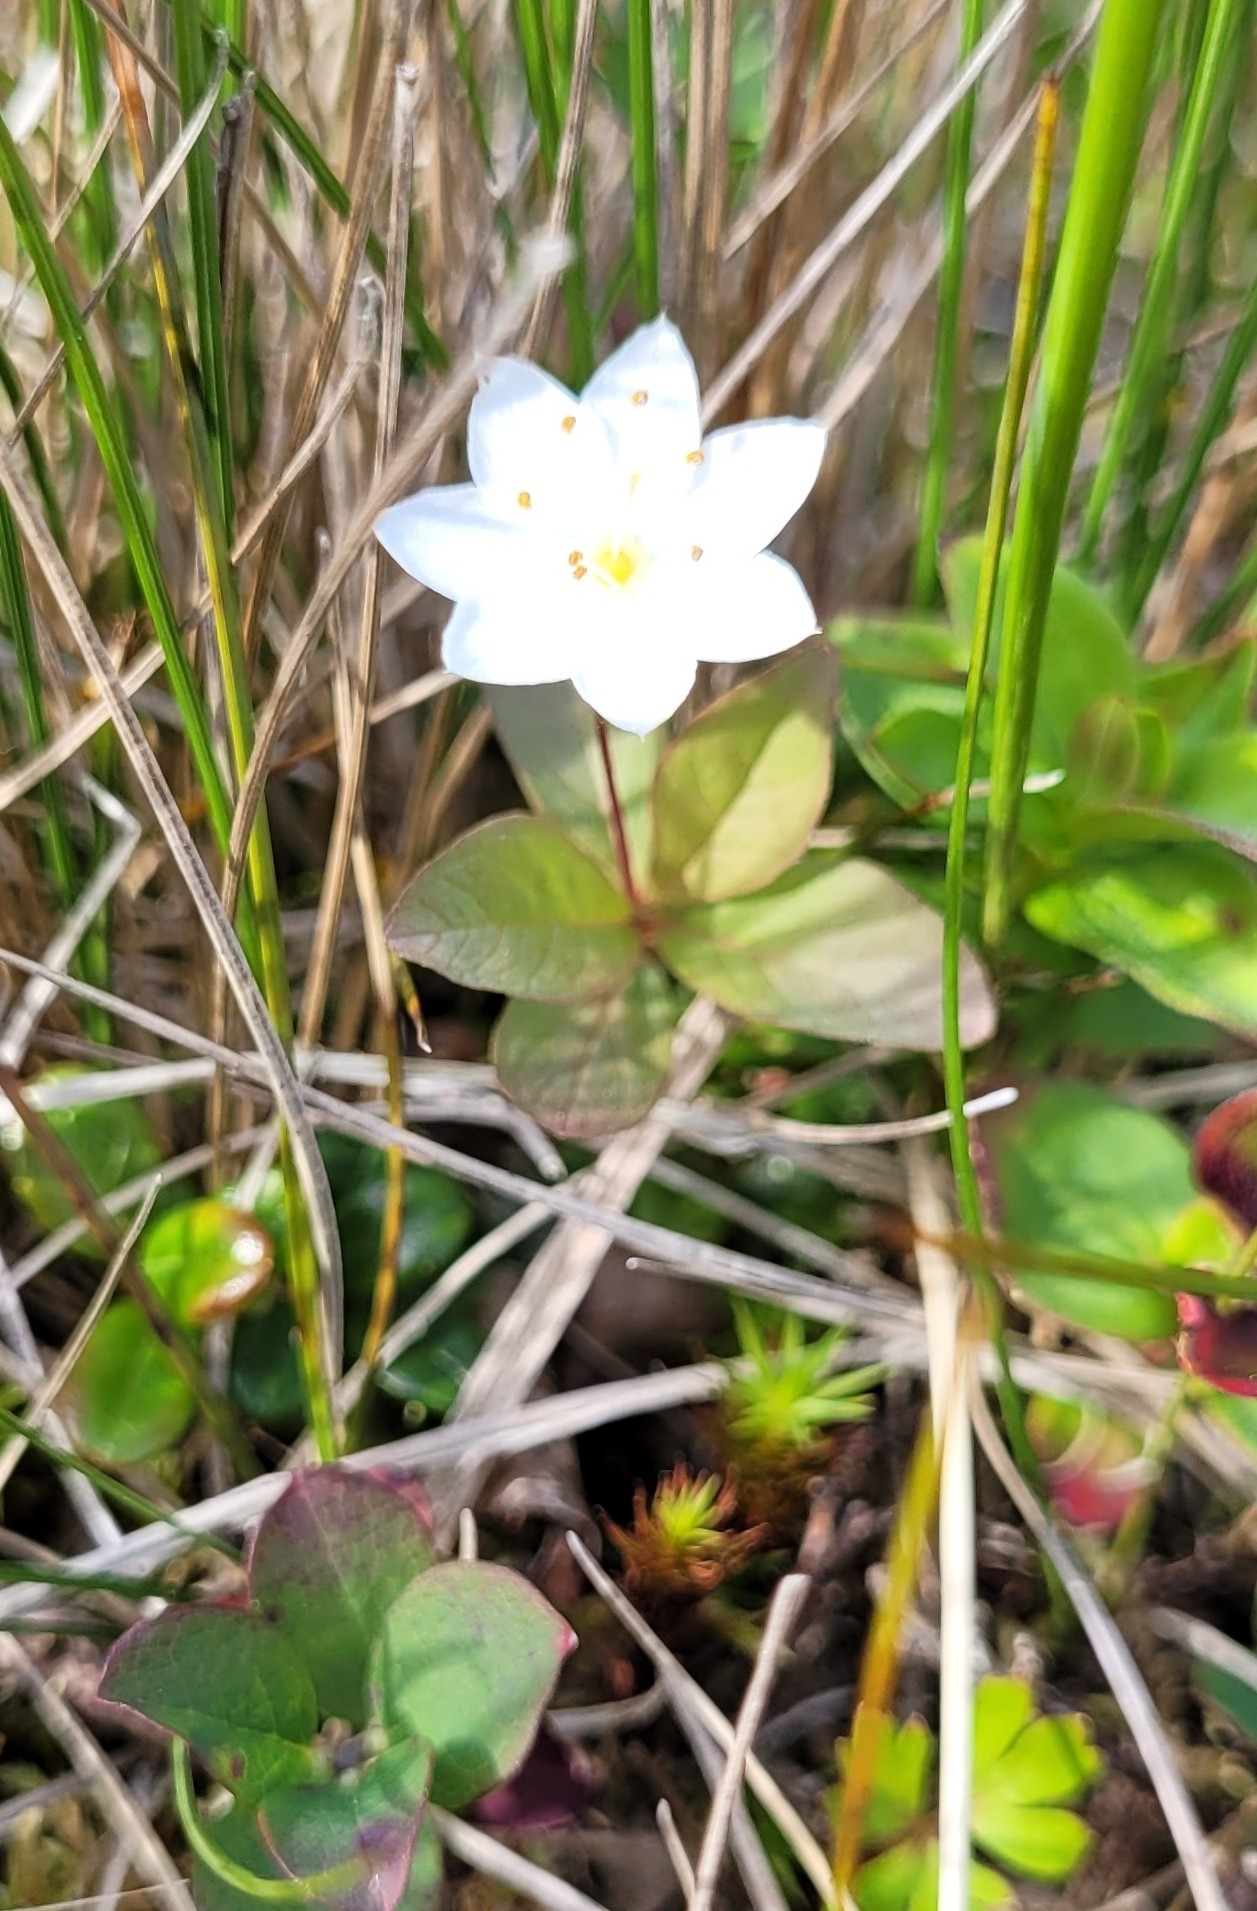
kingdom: Plantae
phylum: Tracheophyta
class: Magnoliopsida
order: Ericales
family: Primulaceae
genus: Lysimachia
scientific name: Lysimachia europaea
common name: Arctic starflower
